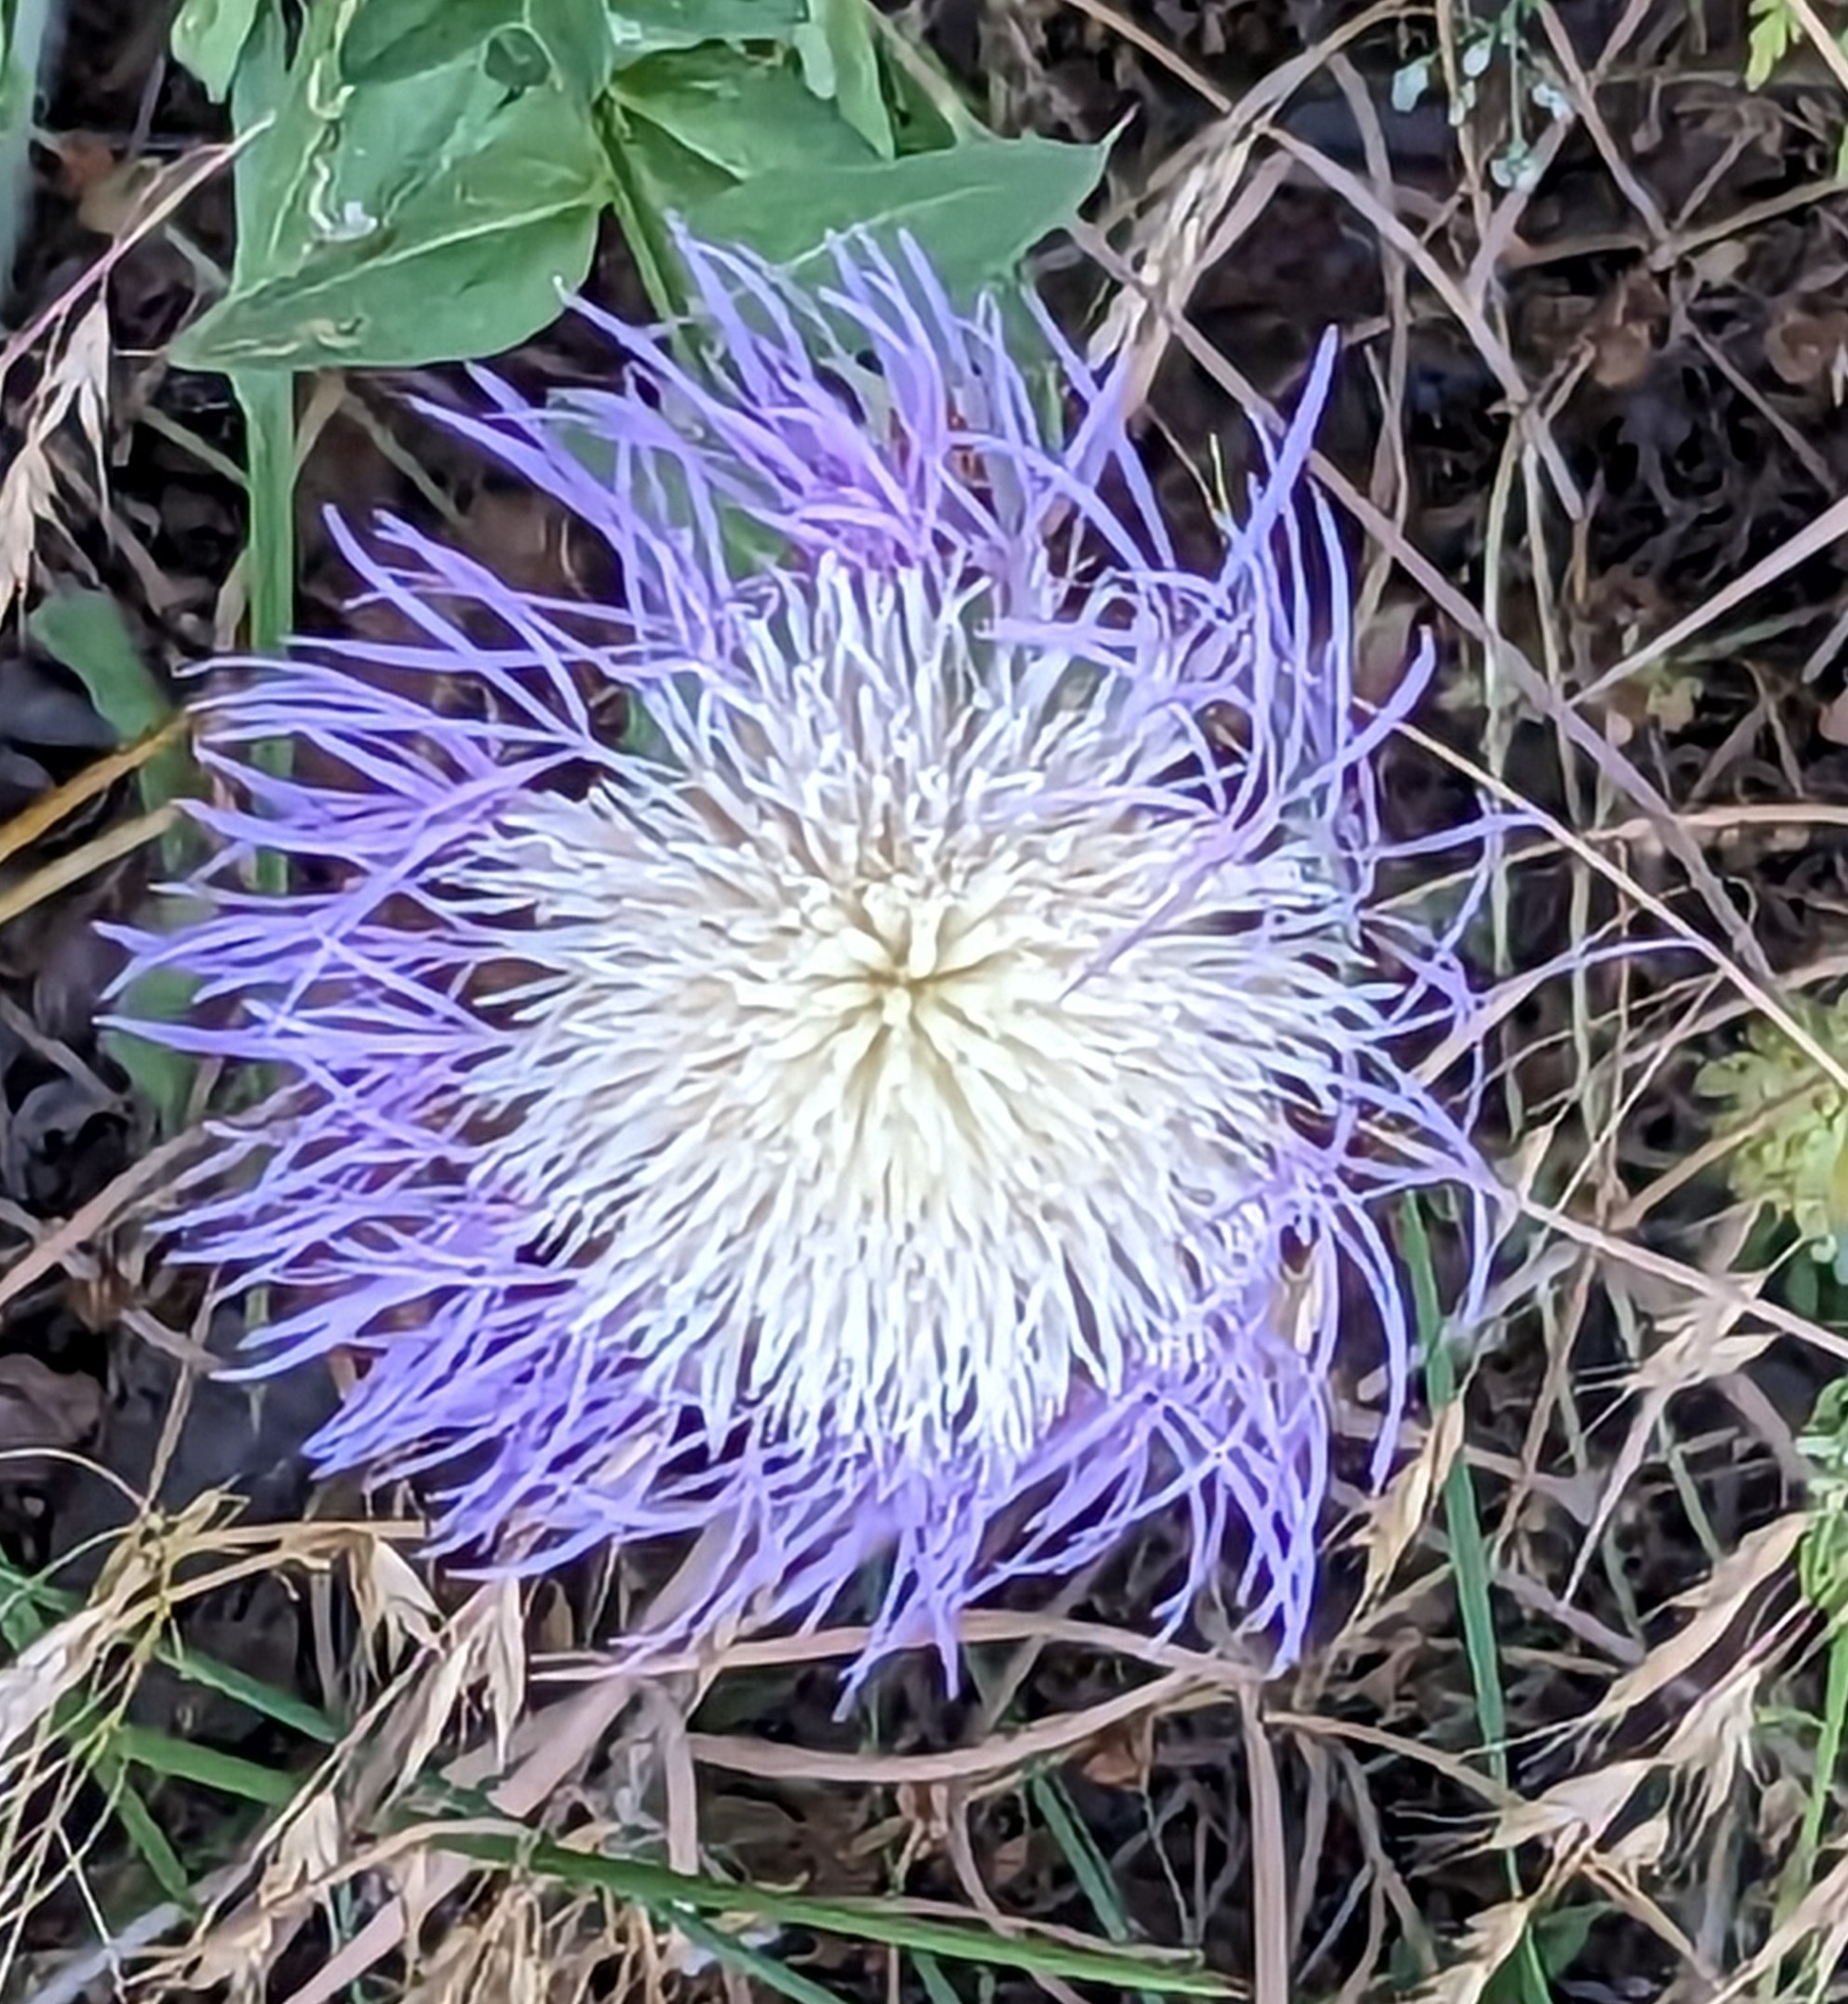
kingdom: Plantae
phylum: Tracheophyta
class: Magnoliopsida
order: Asterales
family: Asteraceae
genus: Plectocephalus
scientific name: Plectocephalus americanus
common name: American basket-flower
